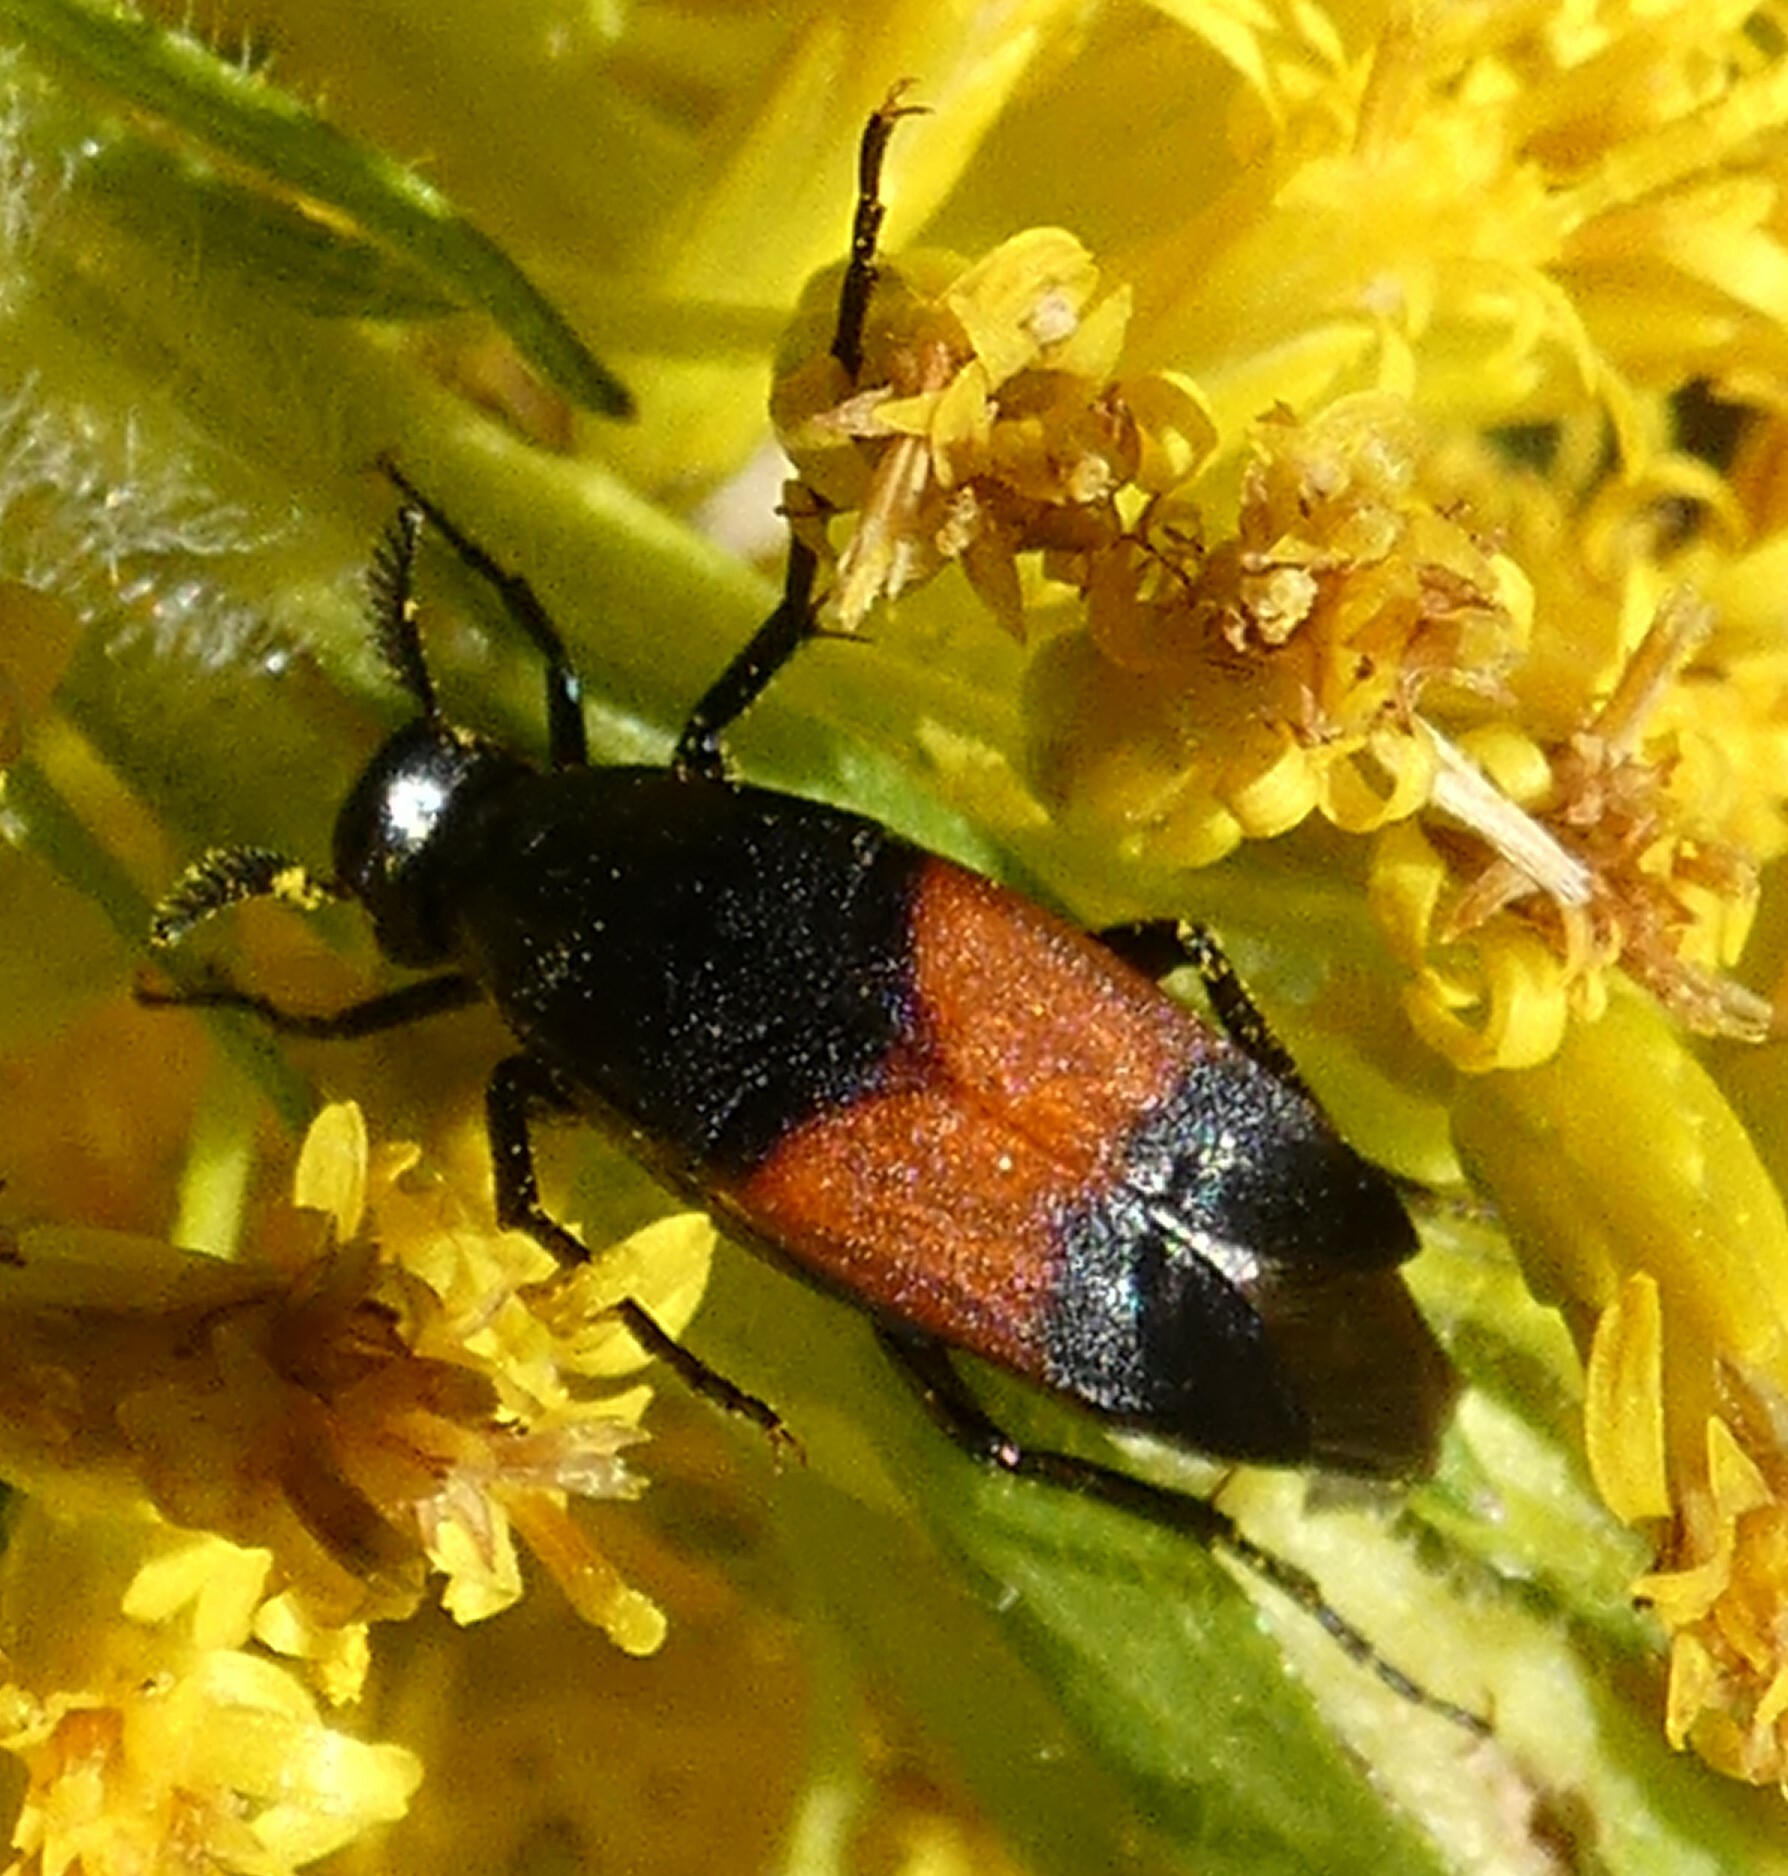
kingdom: Animalia
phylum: Arthropoda
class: Insecta
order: Coleoptera
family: Ripiphoridae
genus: Macrosiagon
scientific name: Macrosiagon cruentum
